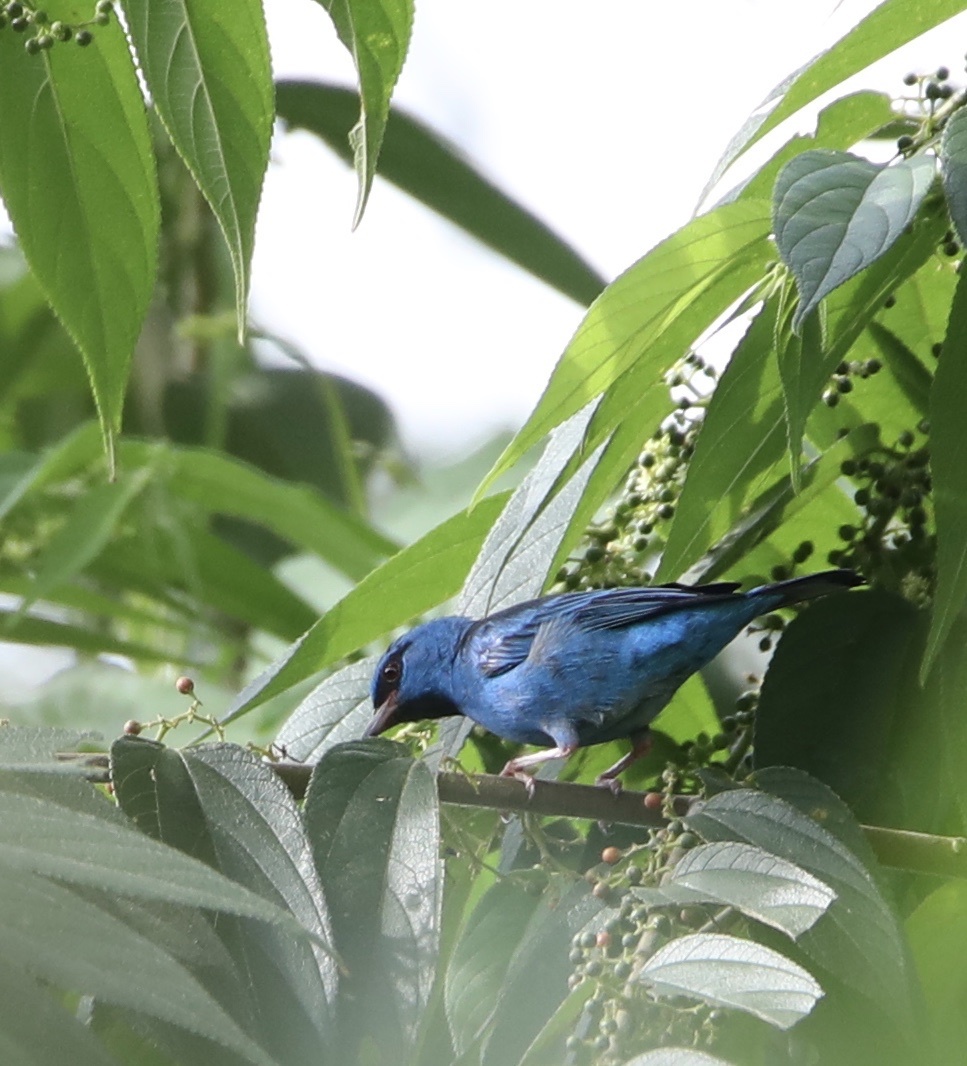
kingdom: Animalia
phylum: Chordata
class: Aves
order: Passeriformes
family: Thraupidae
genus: Dacnis
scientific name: Dacnis cayana
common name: Blue dacnis
